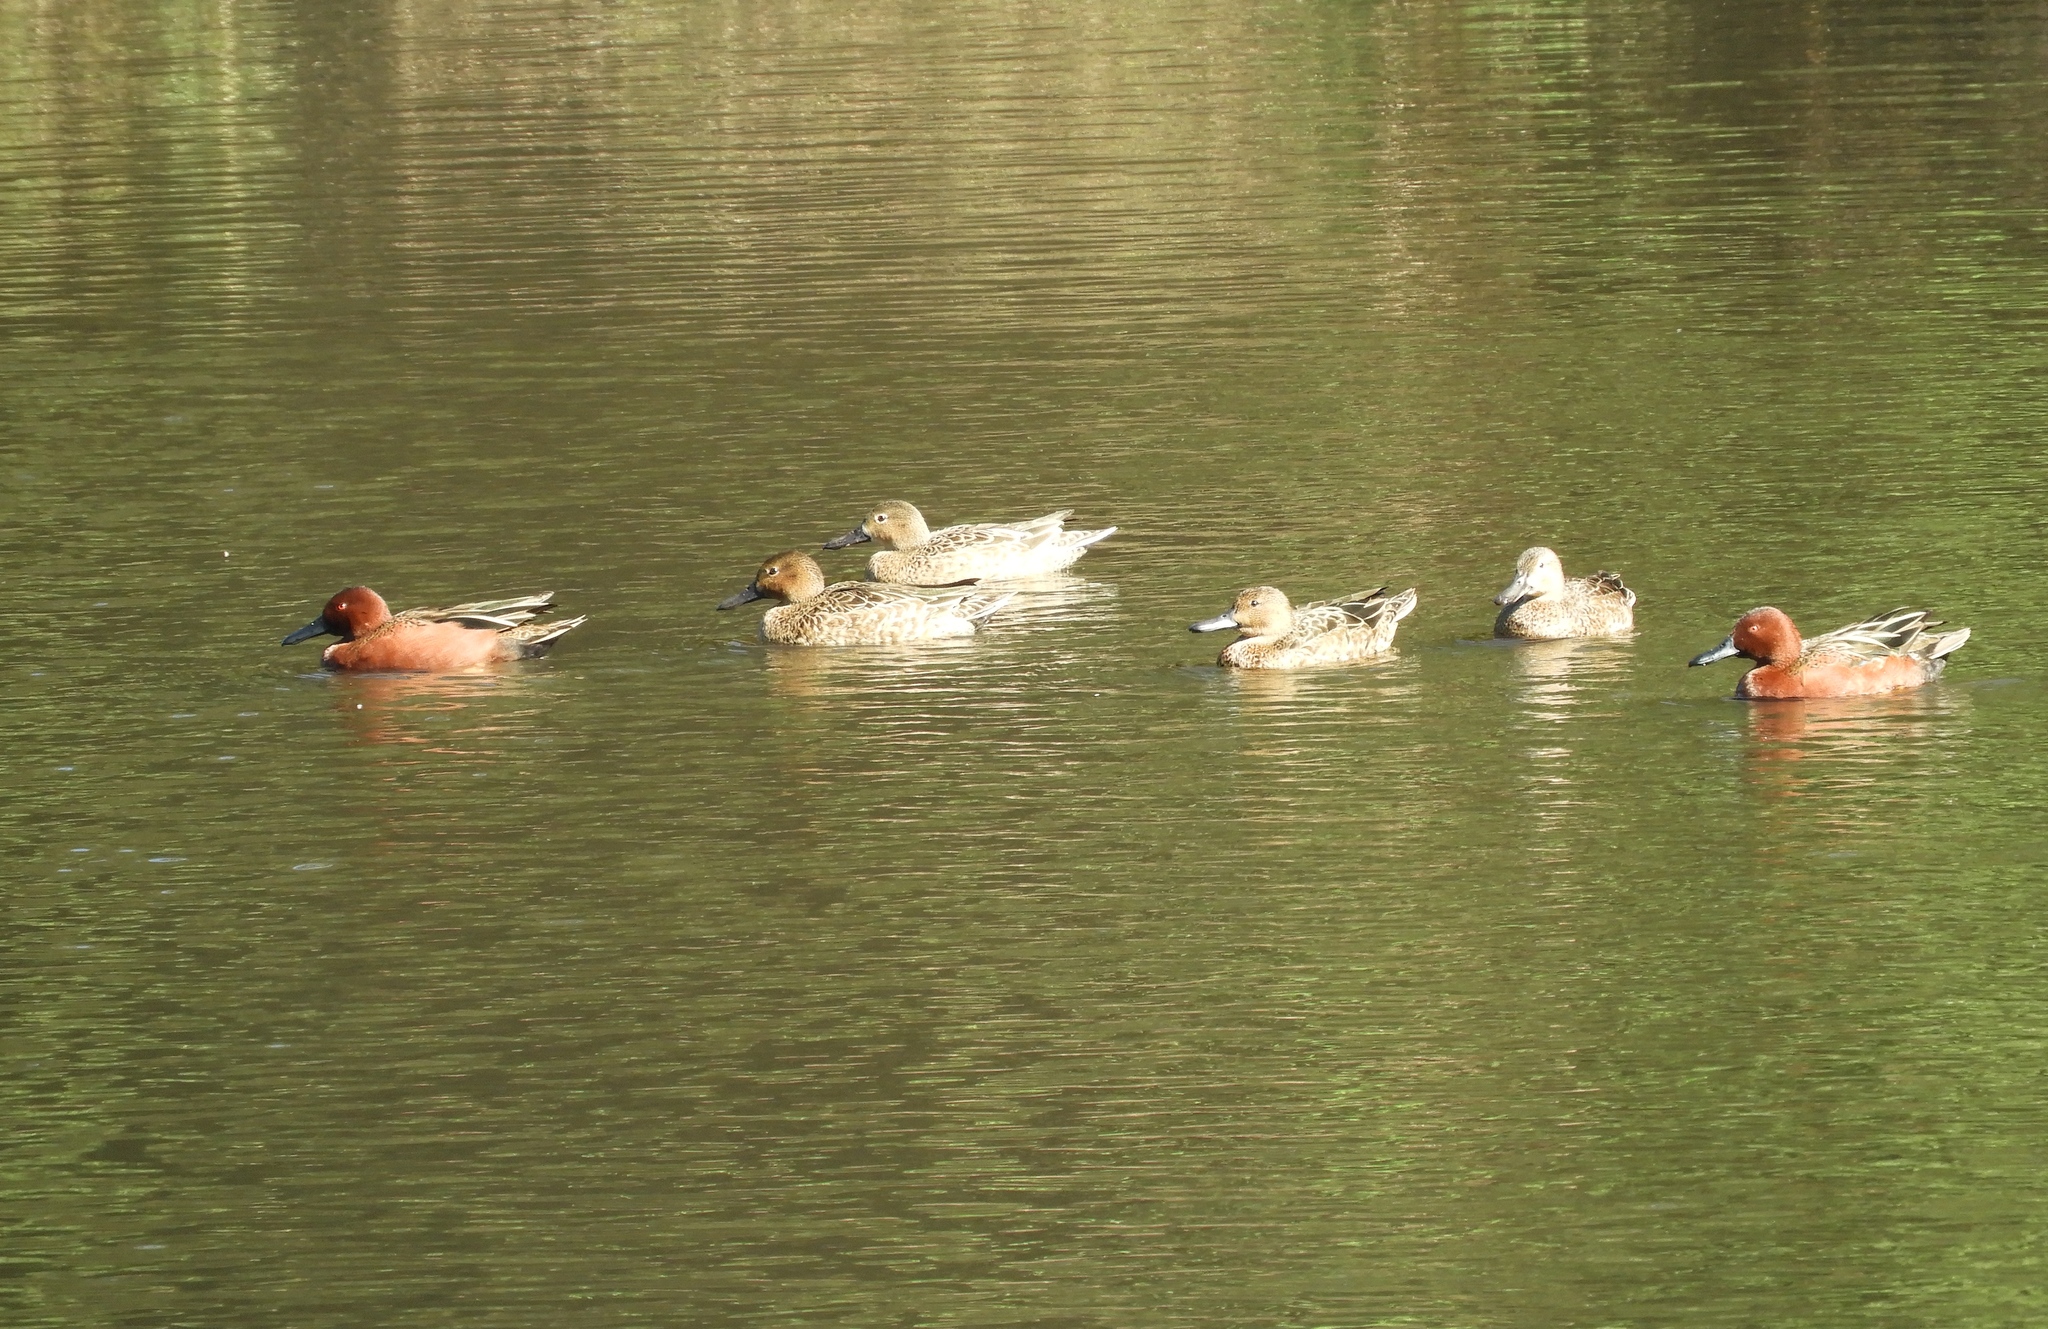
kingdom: Animalia
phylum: Chordata
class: Aves
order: Anseriformes
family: Anatidae
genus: Spatula
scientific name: Spatula cyanoptera
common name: Cinnamon teal
